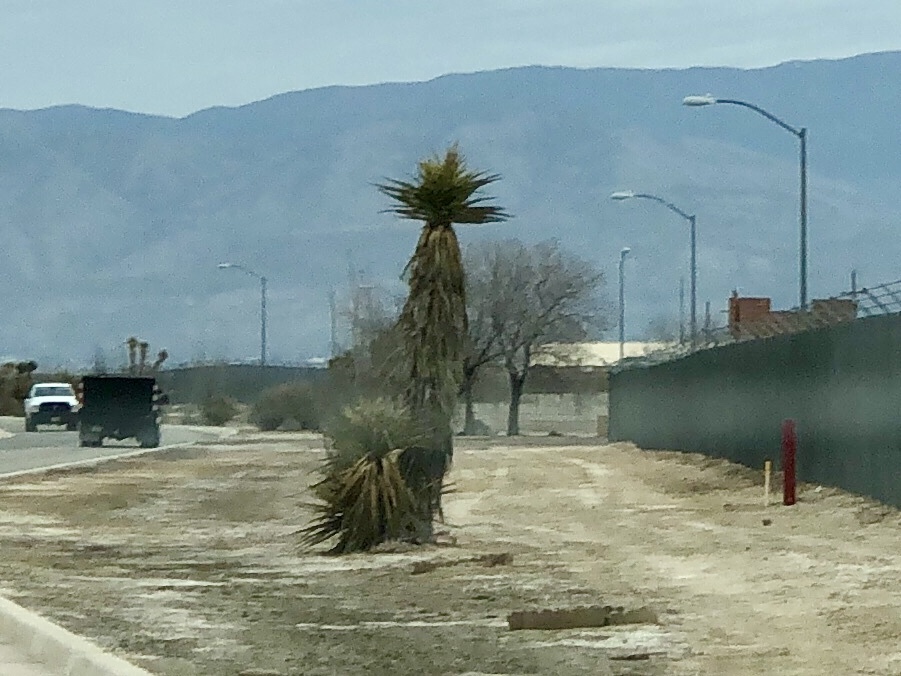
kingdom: Plantae
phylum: Tracheophyta
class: Liliopsida
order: Asparagales
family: Asparagaceae
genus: Yucca
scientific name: Yucca treculiana
